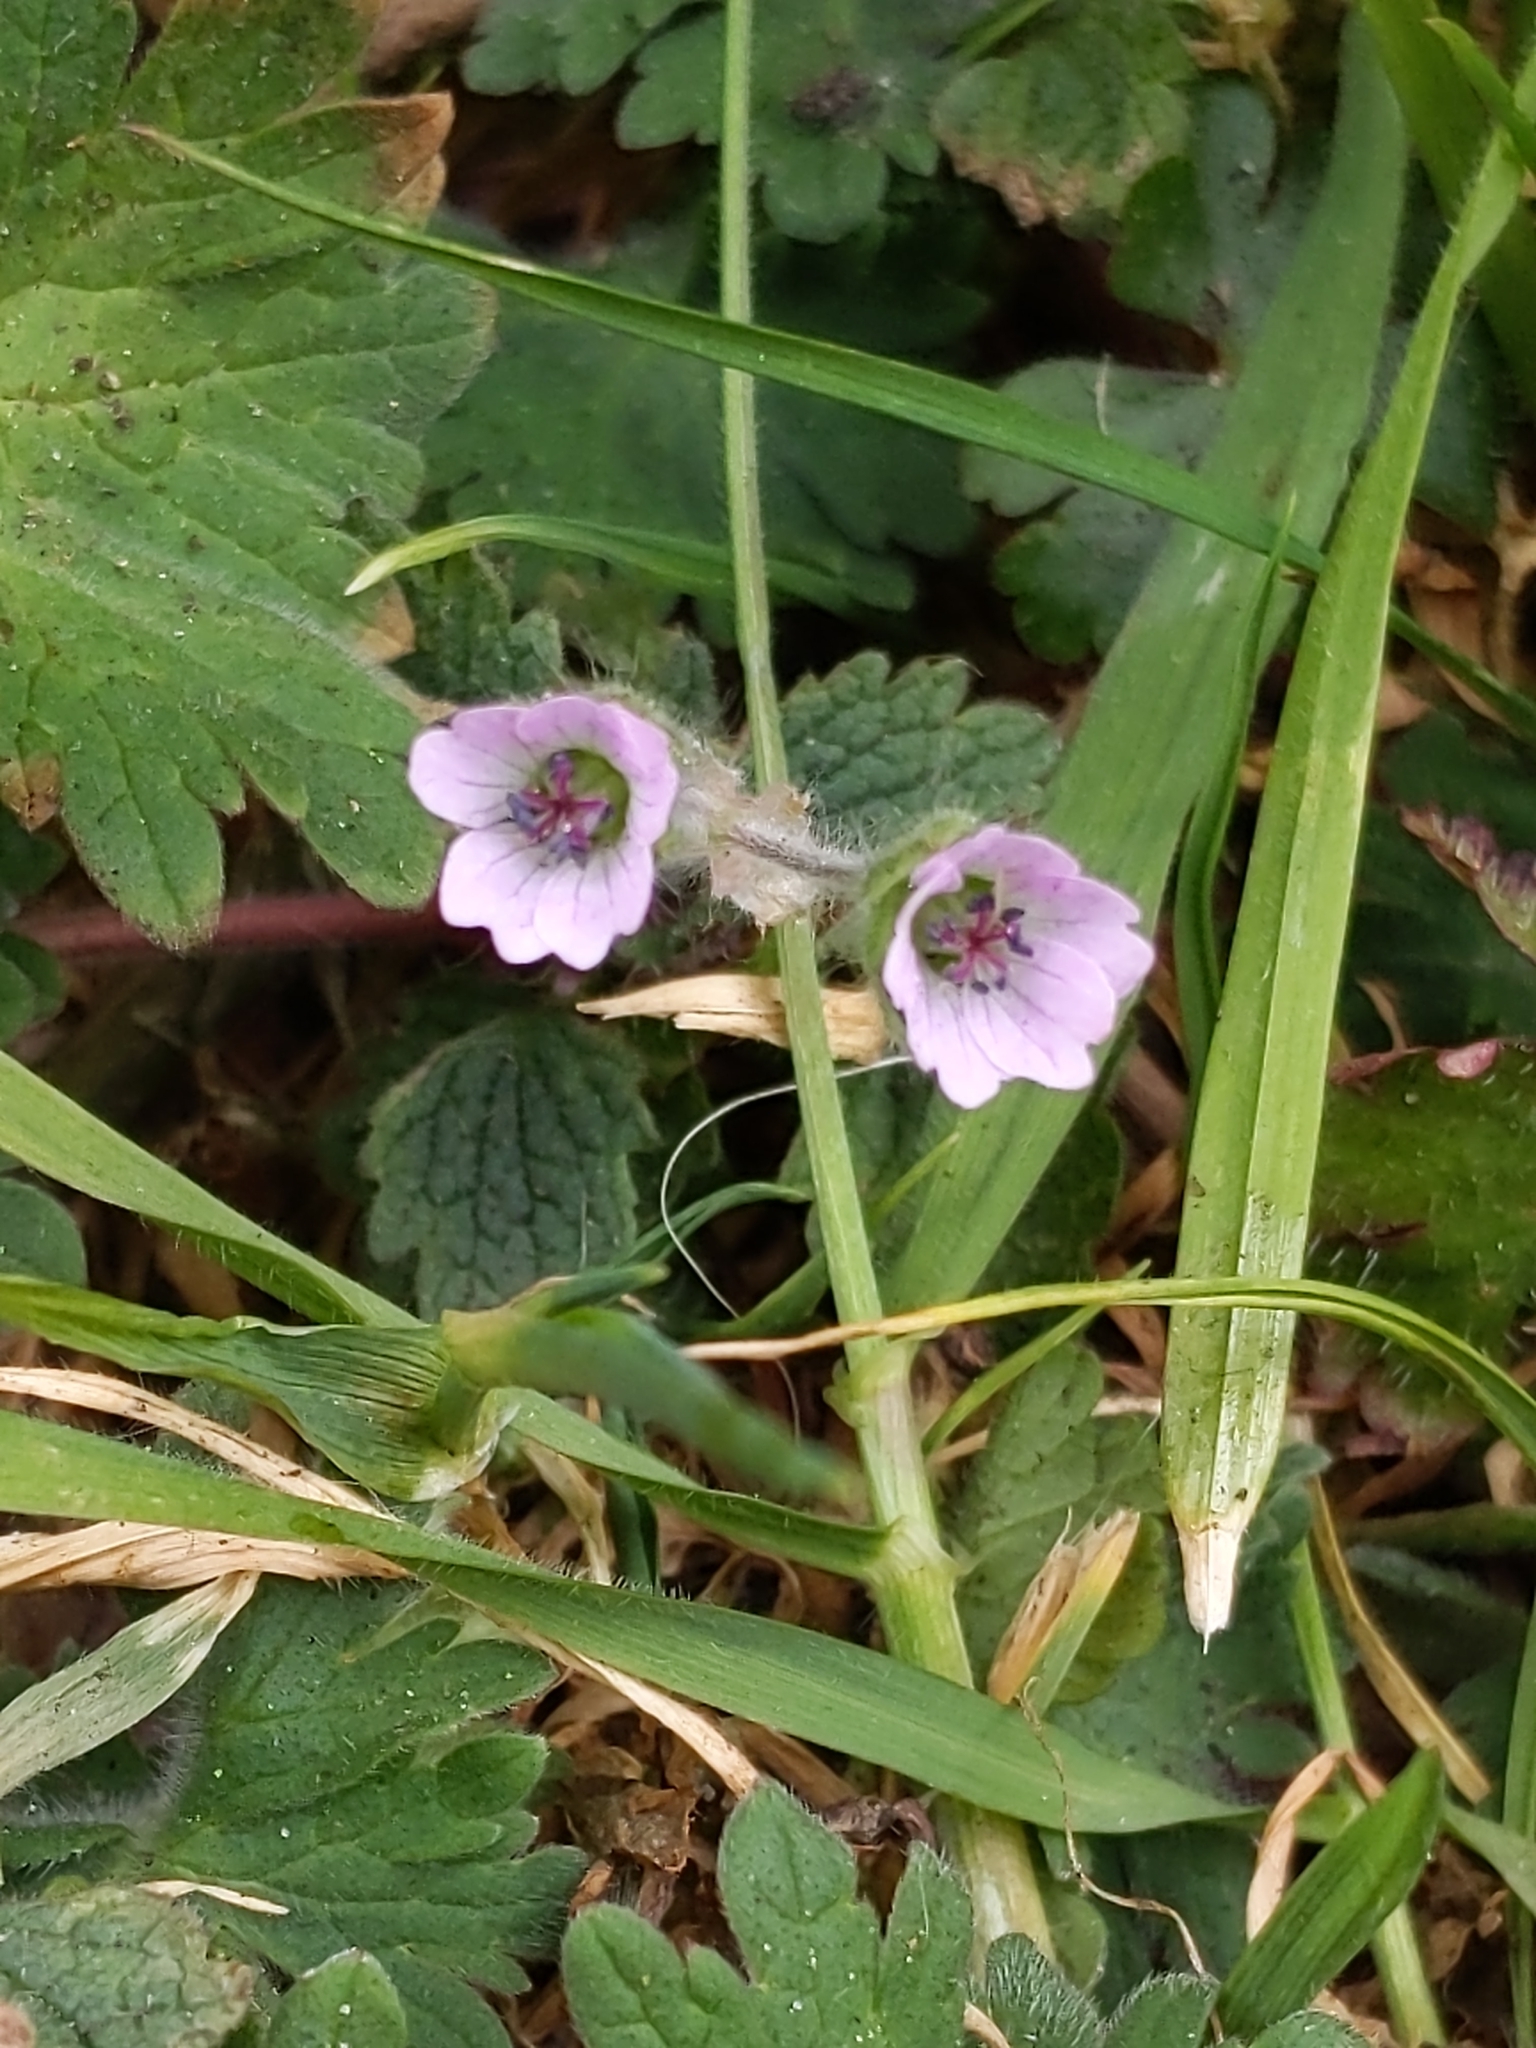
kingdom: Plantae
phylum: Tracheophyta
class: Magnoliopsida
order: Geraniales
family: Geraniaceae
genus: Geranium
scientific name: Geranium molle
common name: Dove's-foot crane's-bill
